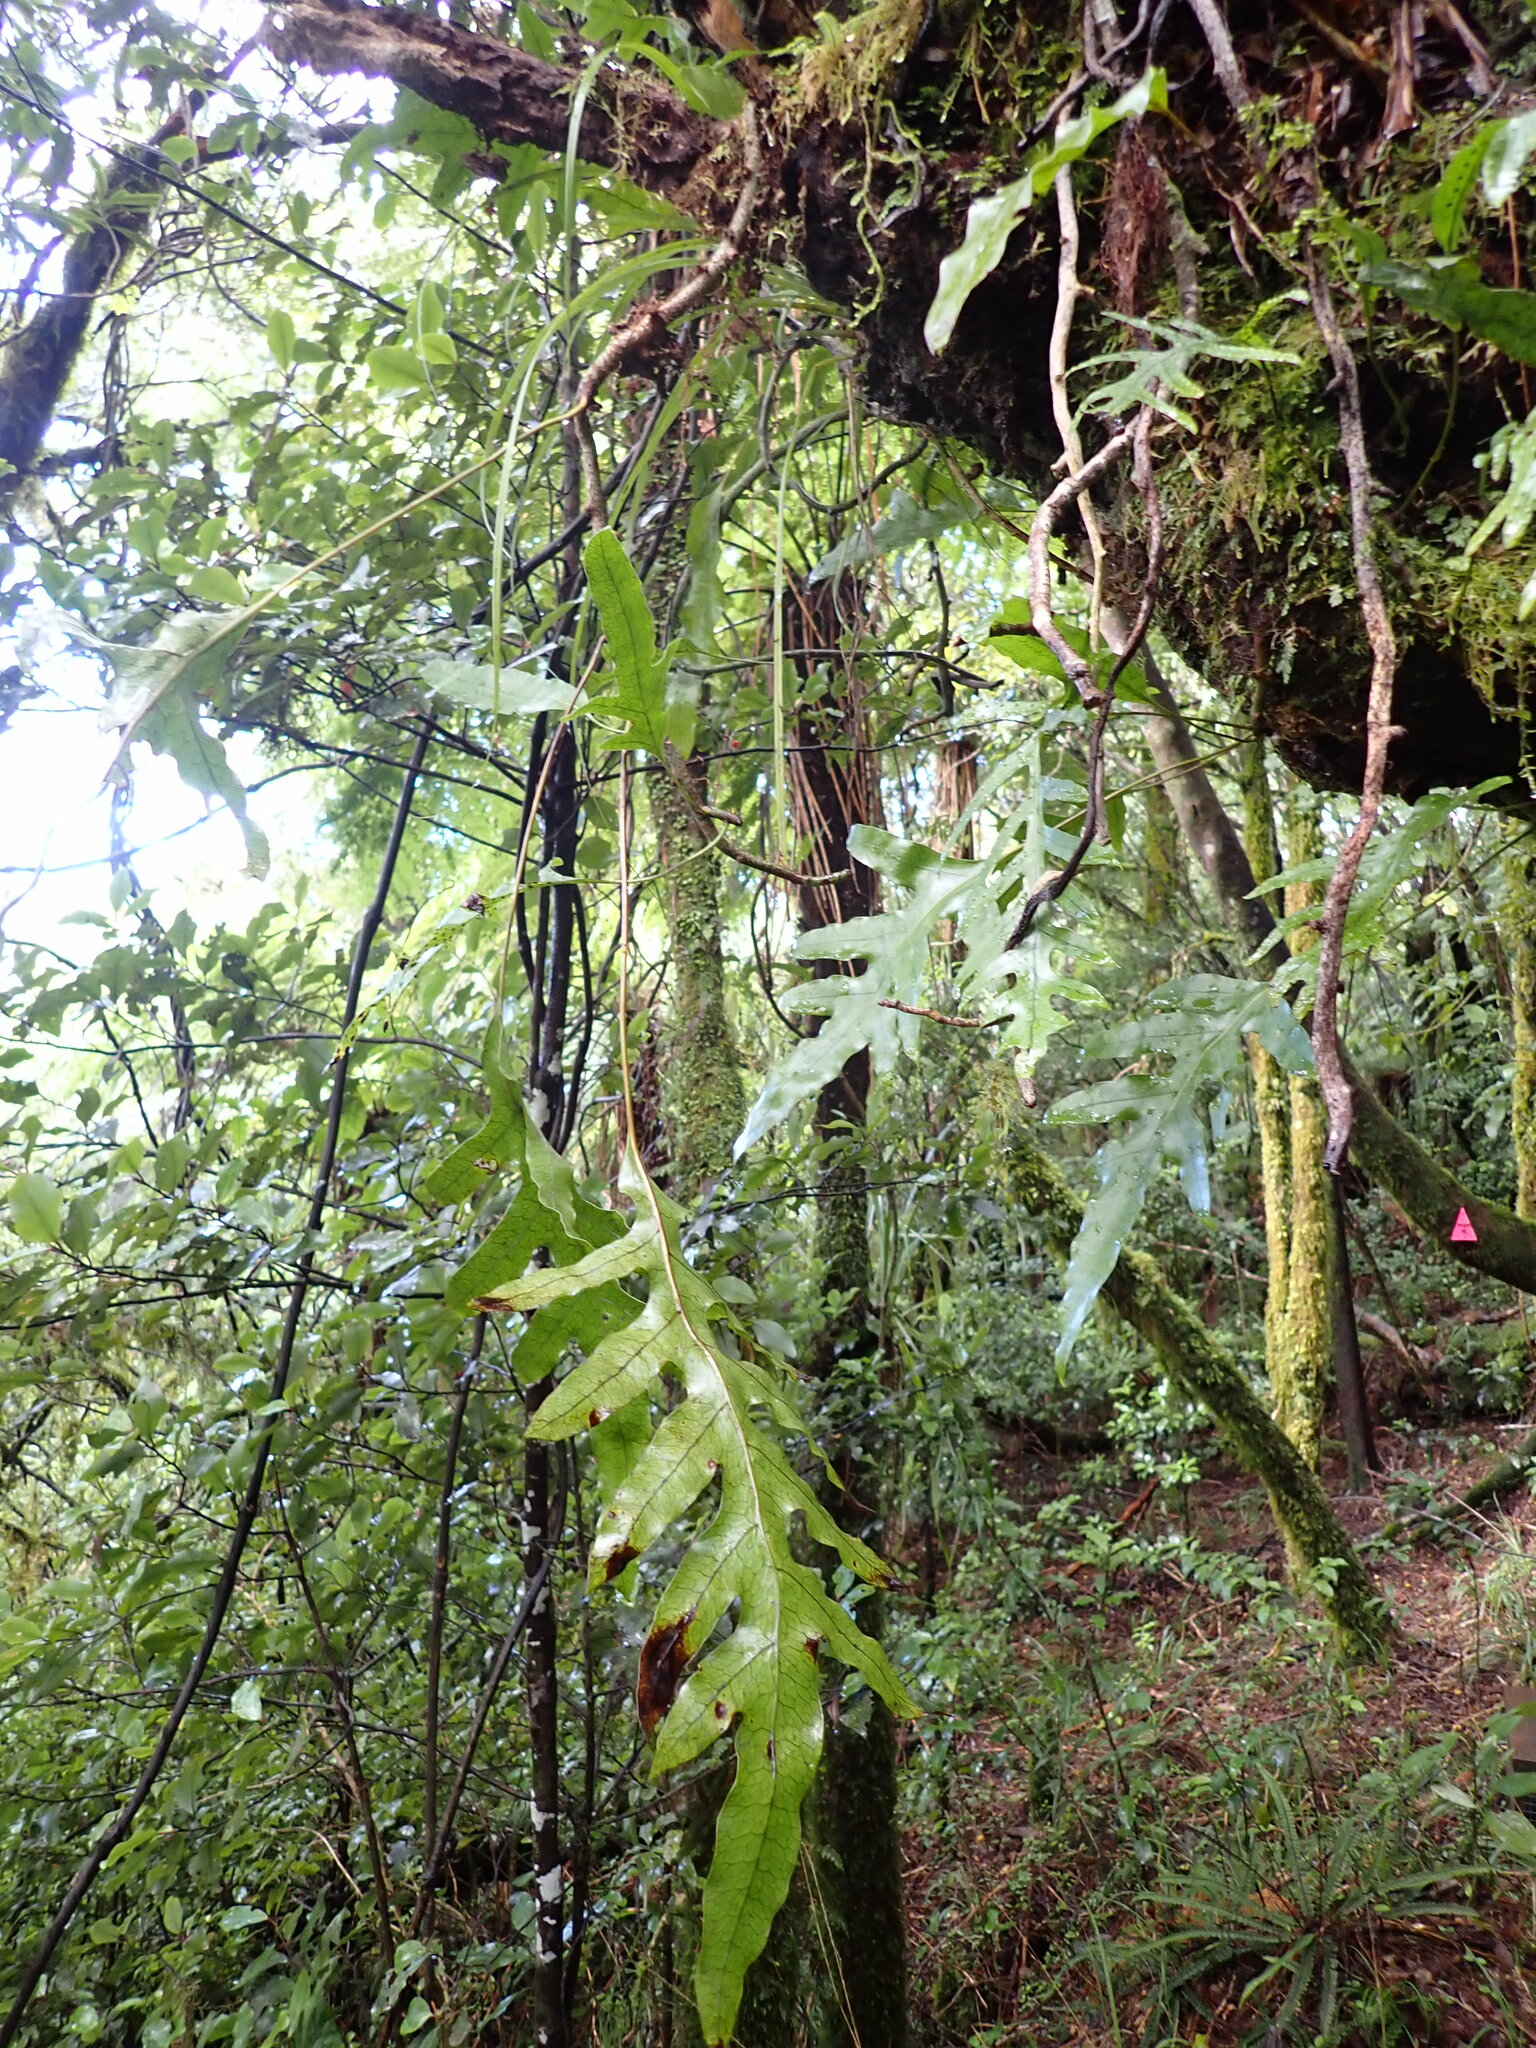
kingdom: Plantae
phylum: Tracheophyta
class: Polypodiopsida
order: Polypodiales
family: Polypodiaceae
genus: Lecanopteris
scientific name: Lecanopteris pustulata
